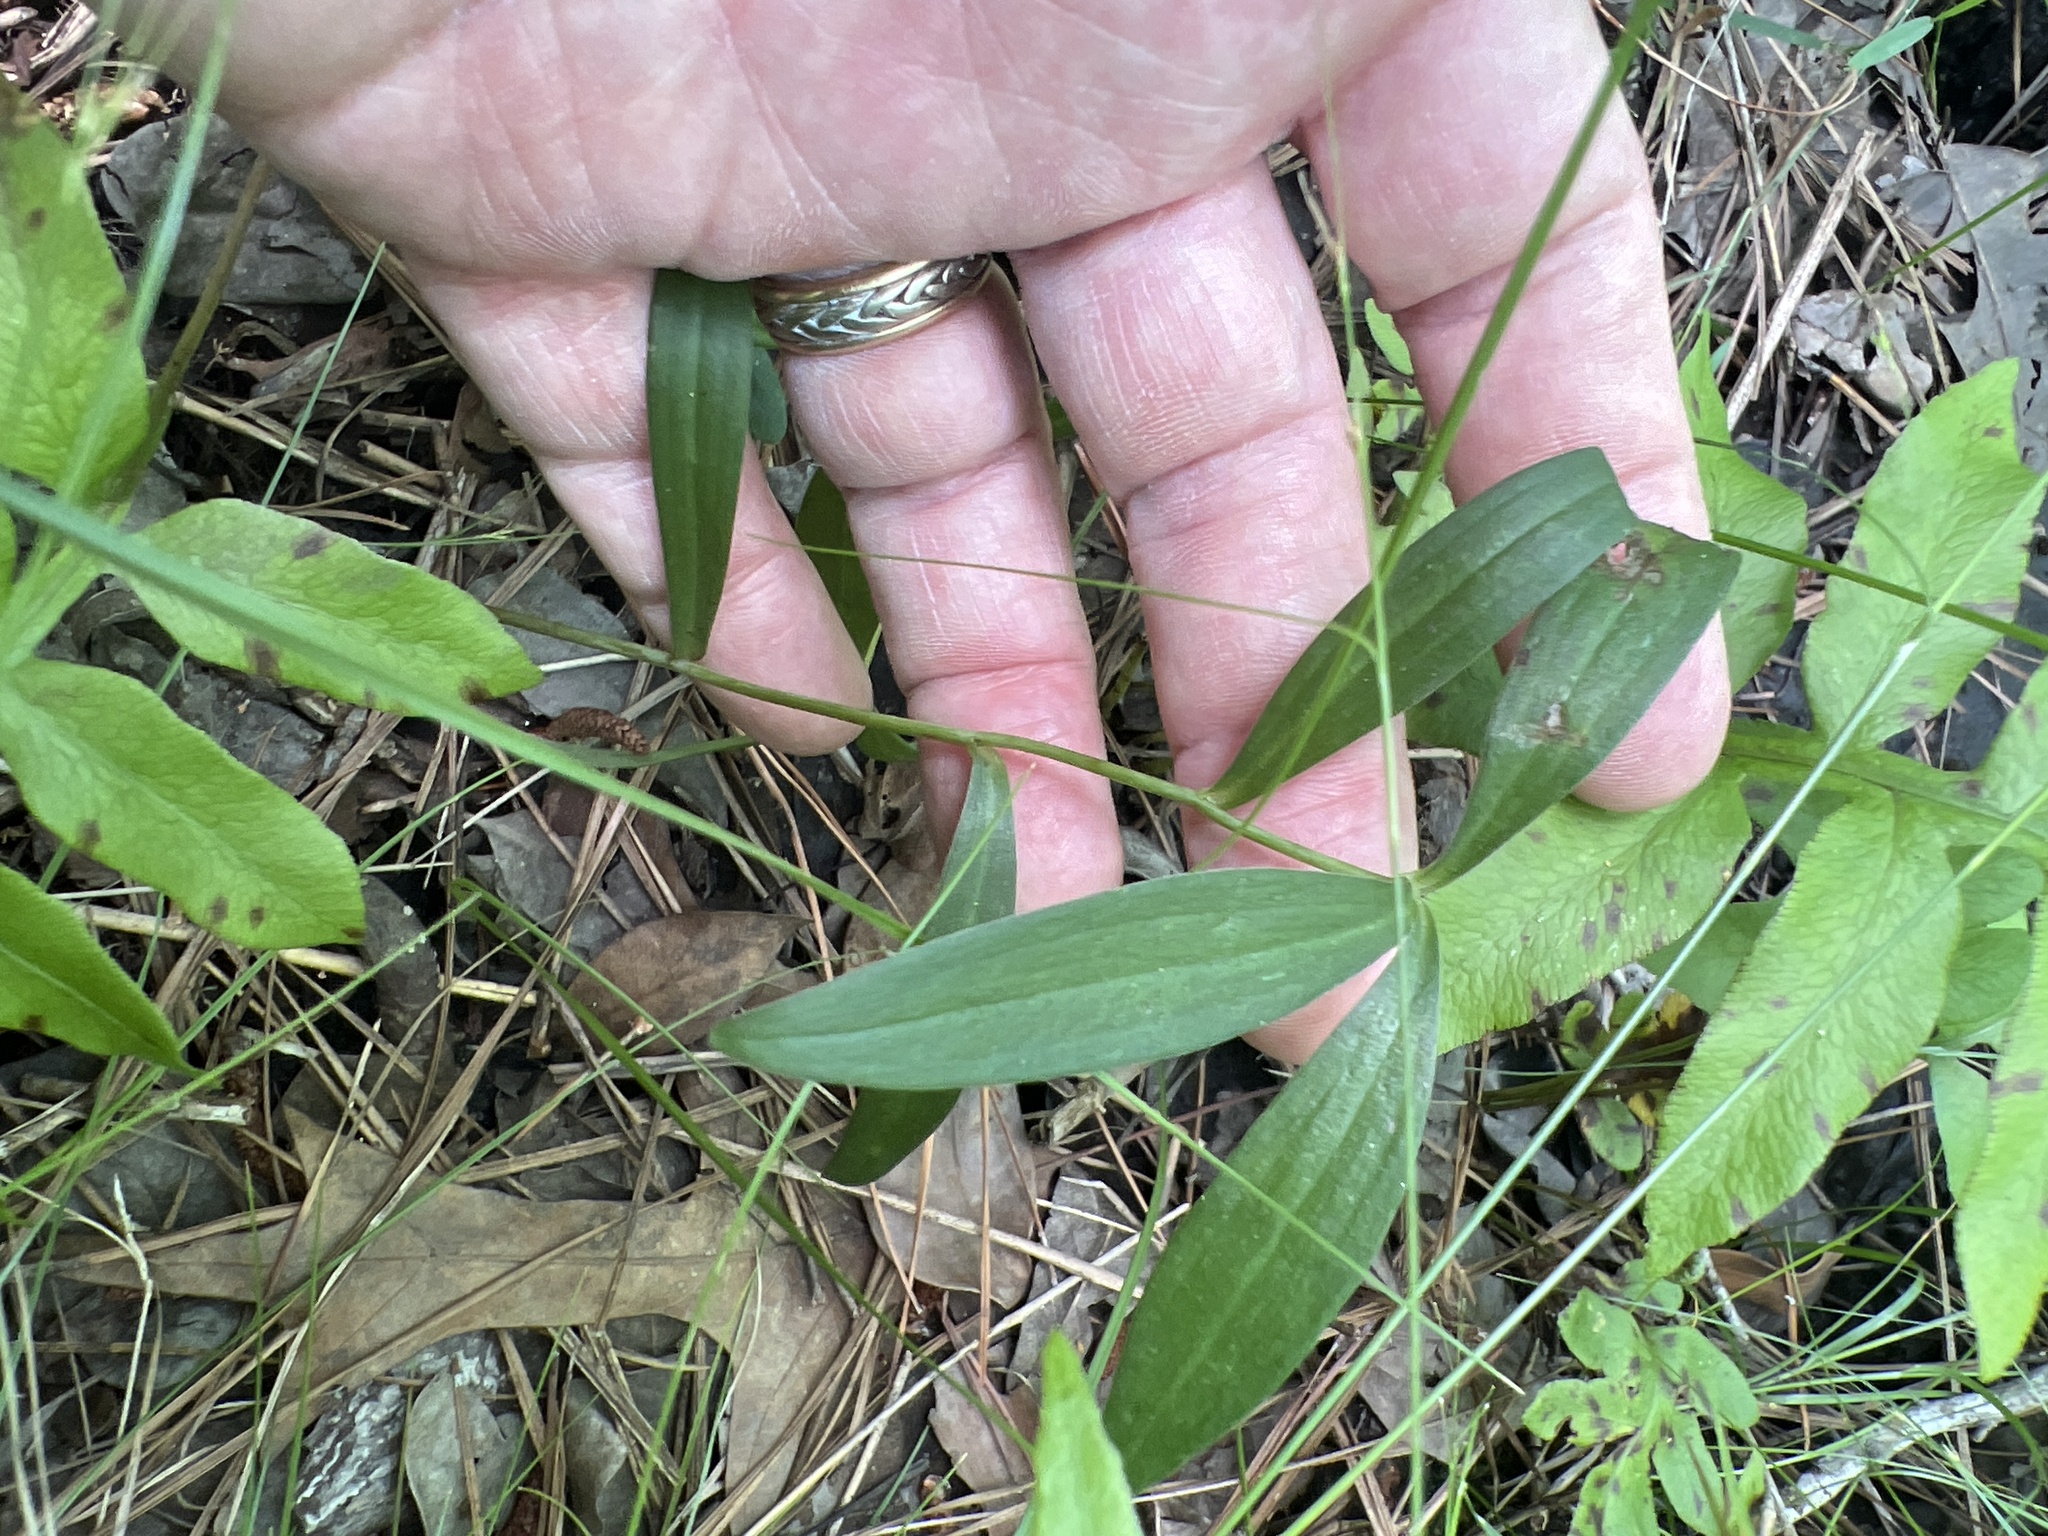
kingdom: Plantae
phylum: Tracheophyta
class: Liliopsida
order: Liliales
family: Liliaceae
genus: Lilium
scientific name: Lilium pyrophilum
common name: Sandhills lily
